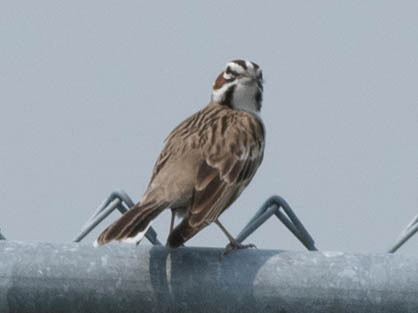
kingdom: Animalia
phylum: Chordata
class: Aves
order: Passeriformes
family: Passerellidae
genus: Chondestes
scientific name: Chondestes grammacus
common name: Lark sparrow
